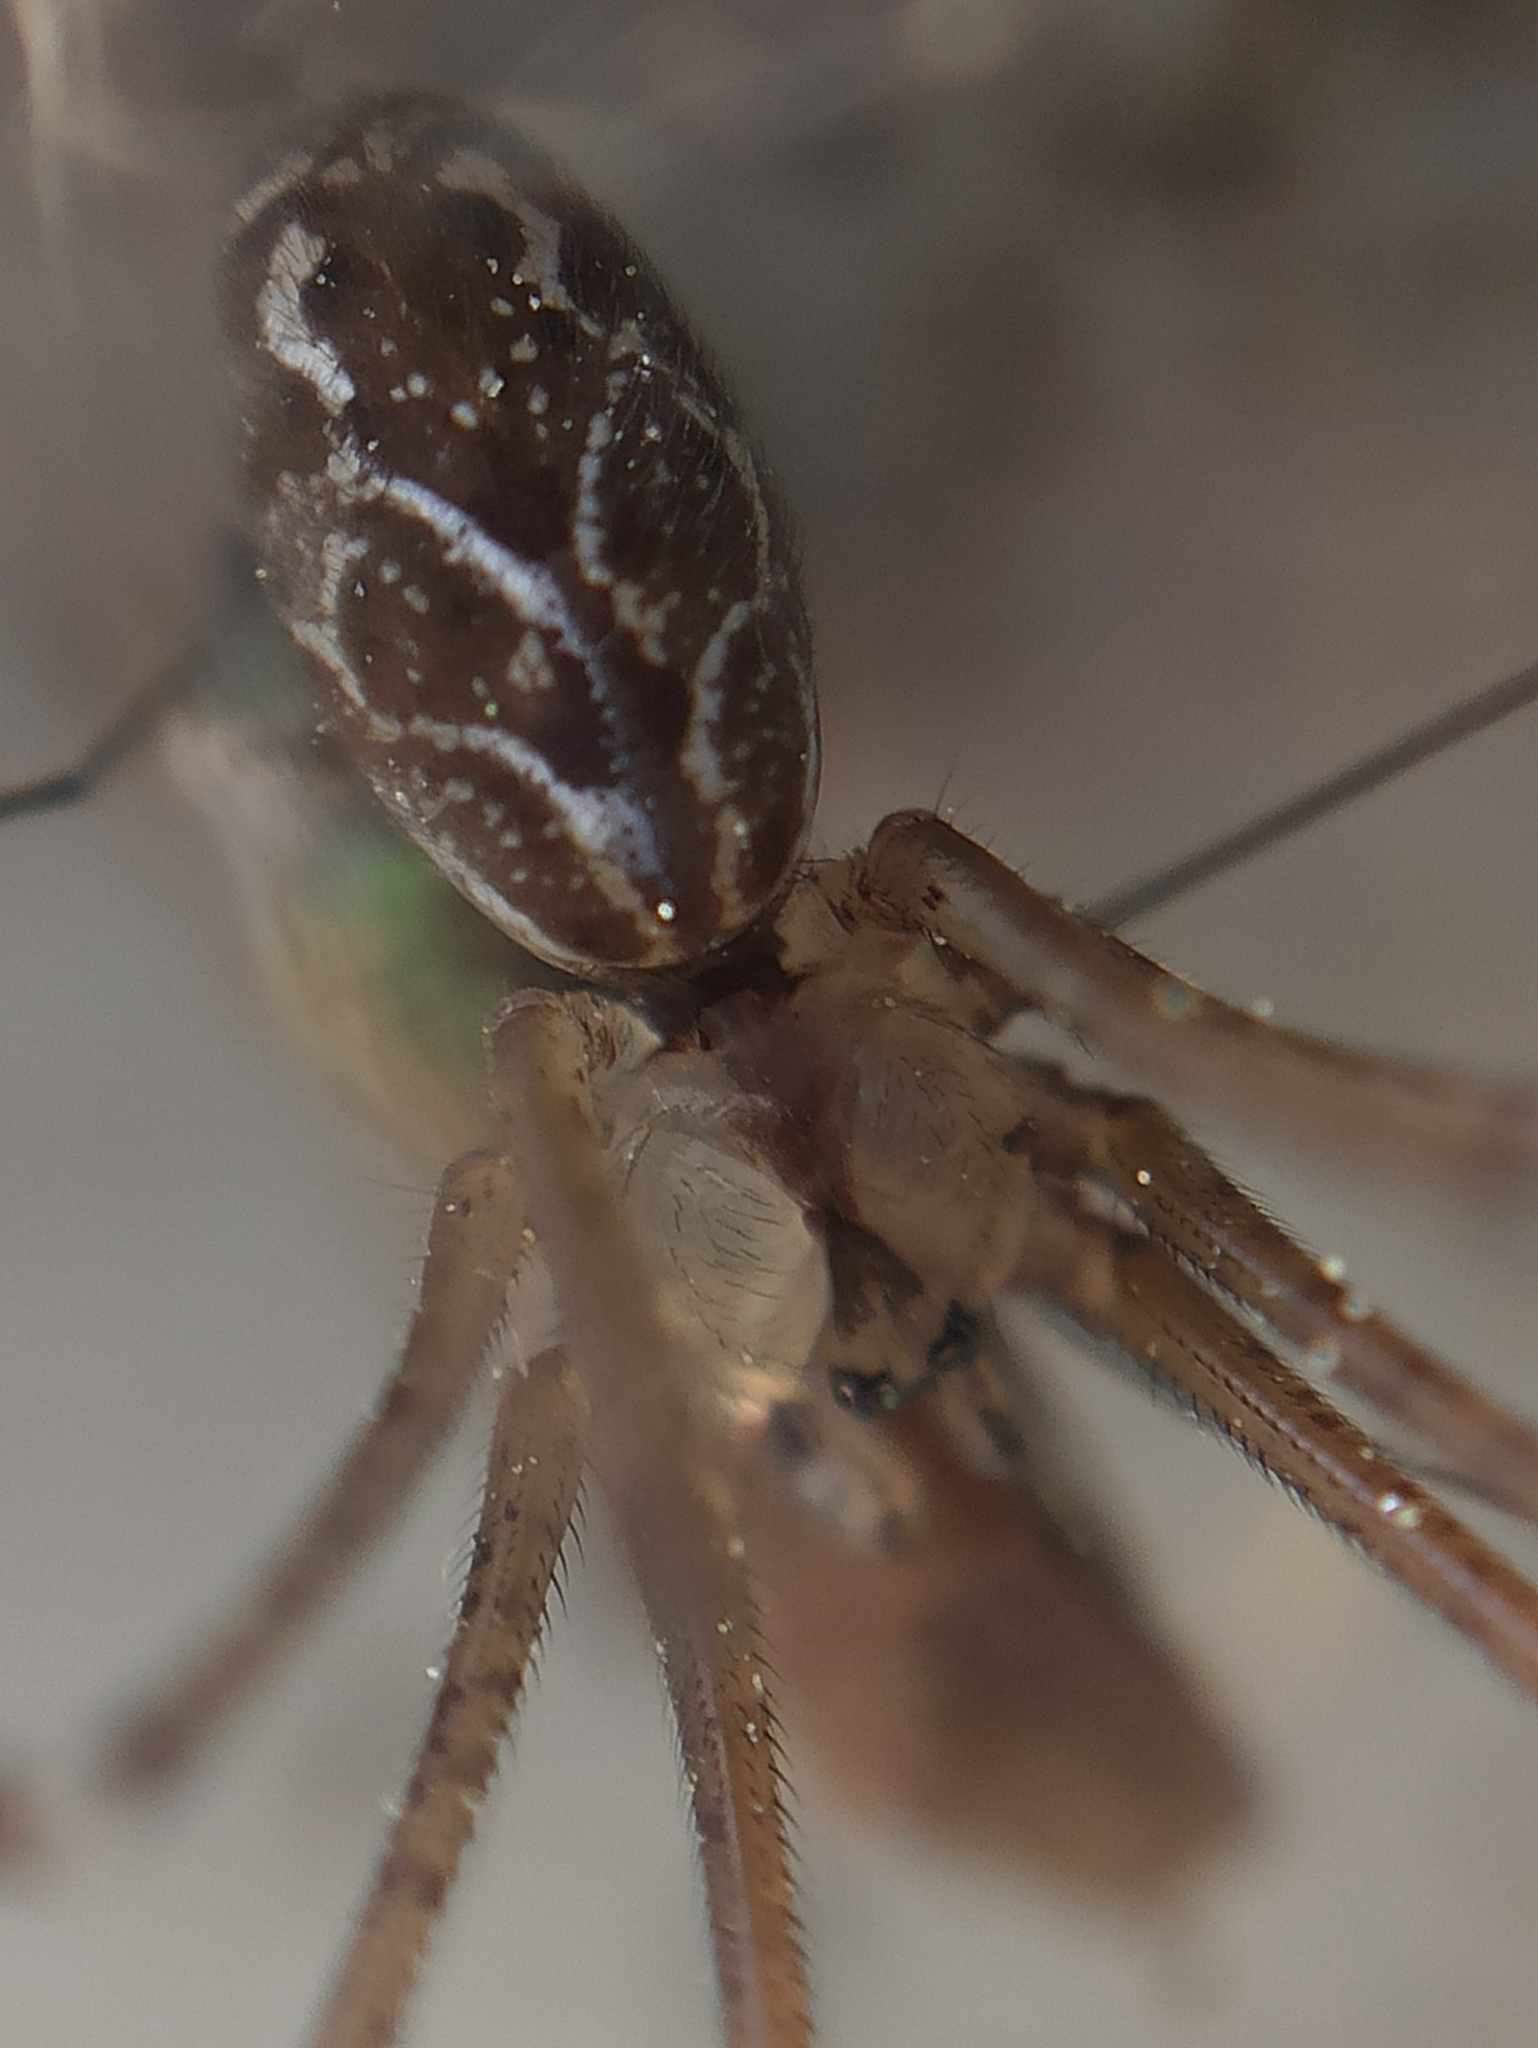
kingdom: Animalia
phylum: Arthropoda
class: Arachnida
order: Araneae
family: Pholcidae
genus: Holocnemus
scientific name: Holocnemus pluchei
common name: Marbled cellar spider
